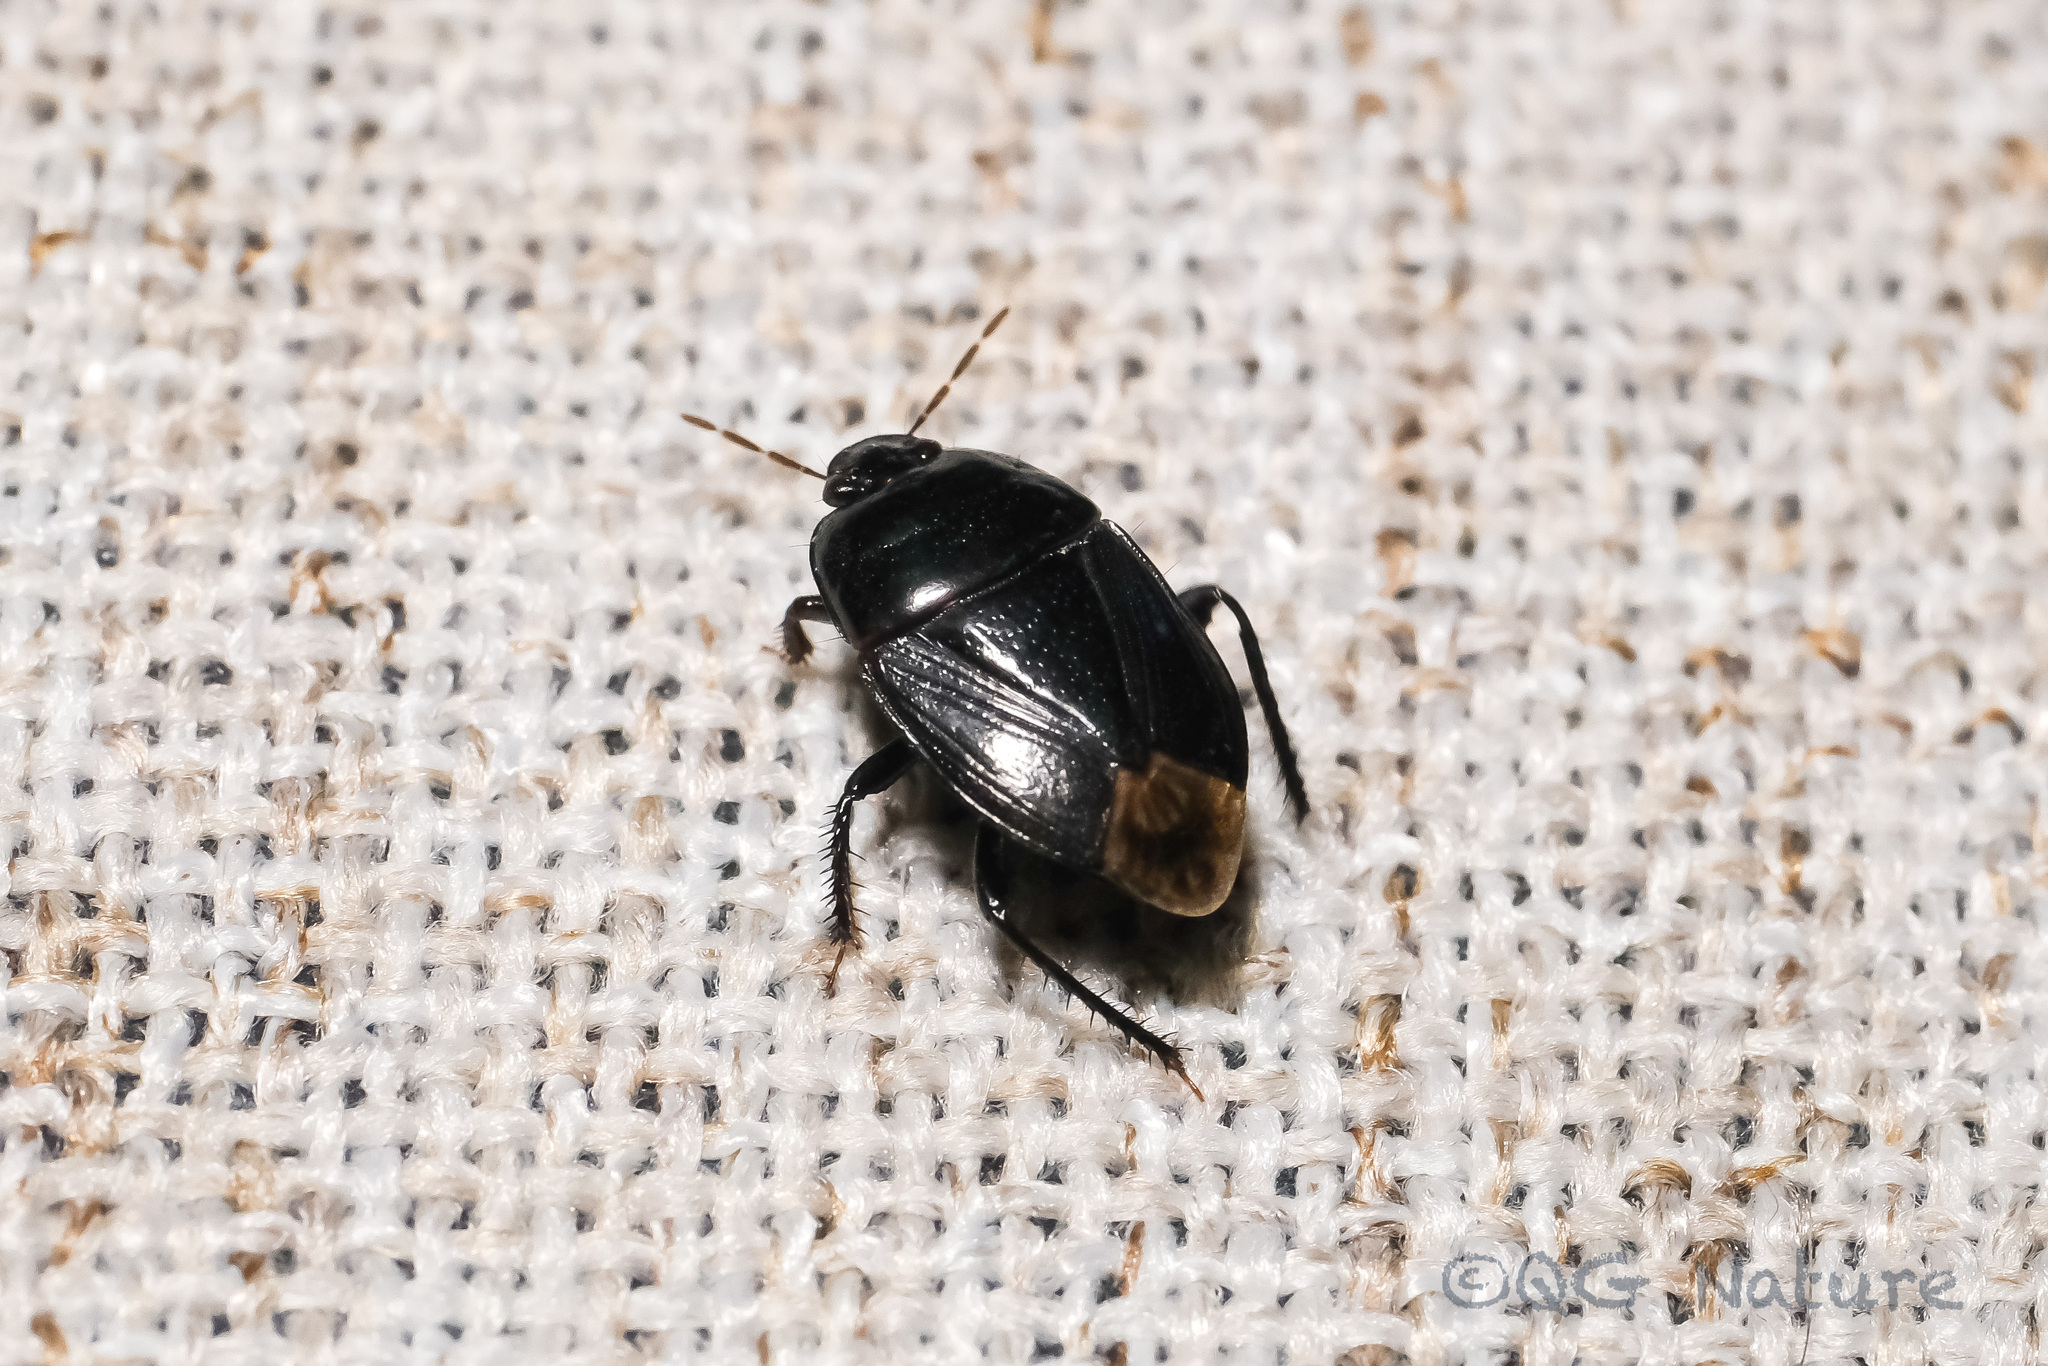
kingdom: Animalia
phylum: Arthropoda
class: Insecta
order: Hemiptera
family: Cydnidae
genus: Macroscytus
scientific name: Macroscytus japonensis
